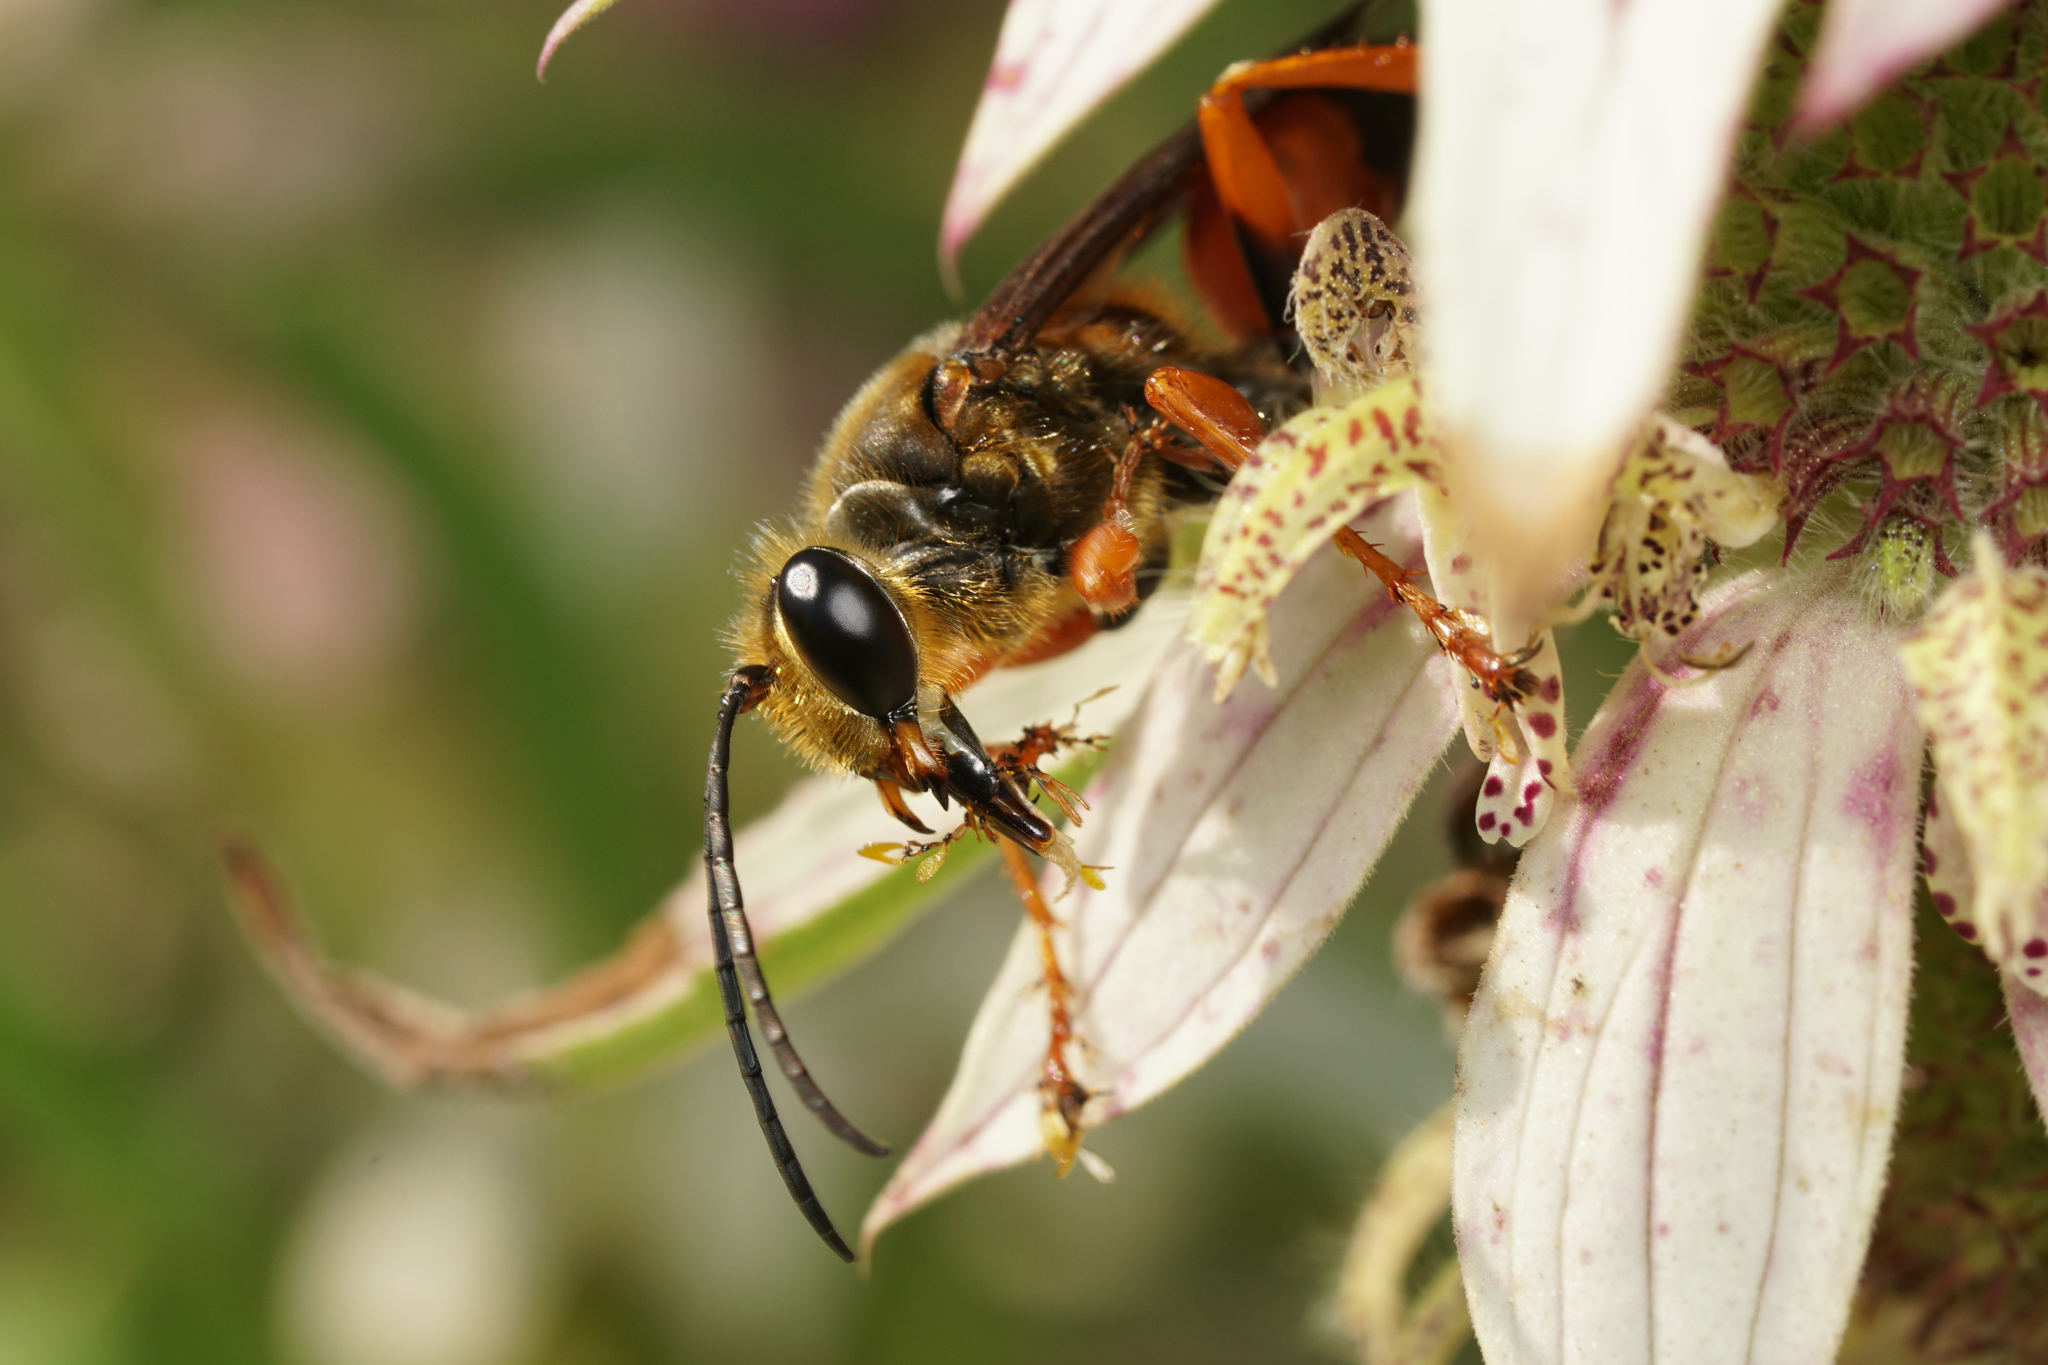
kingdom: Animalia
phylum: Arthropoda
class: Insecta
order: Hymenoptera
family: Sphecidae
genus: Sphex
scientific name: Sphex ichneumoneus
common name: Great golden digger wasp
